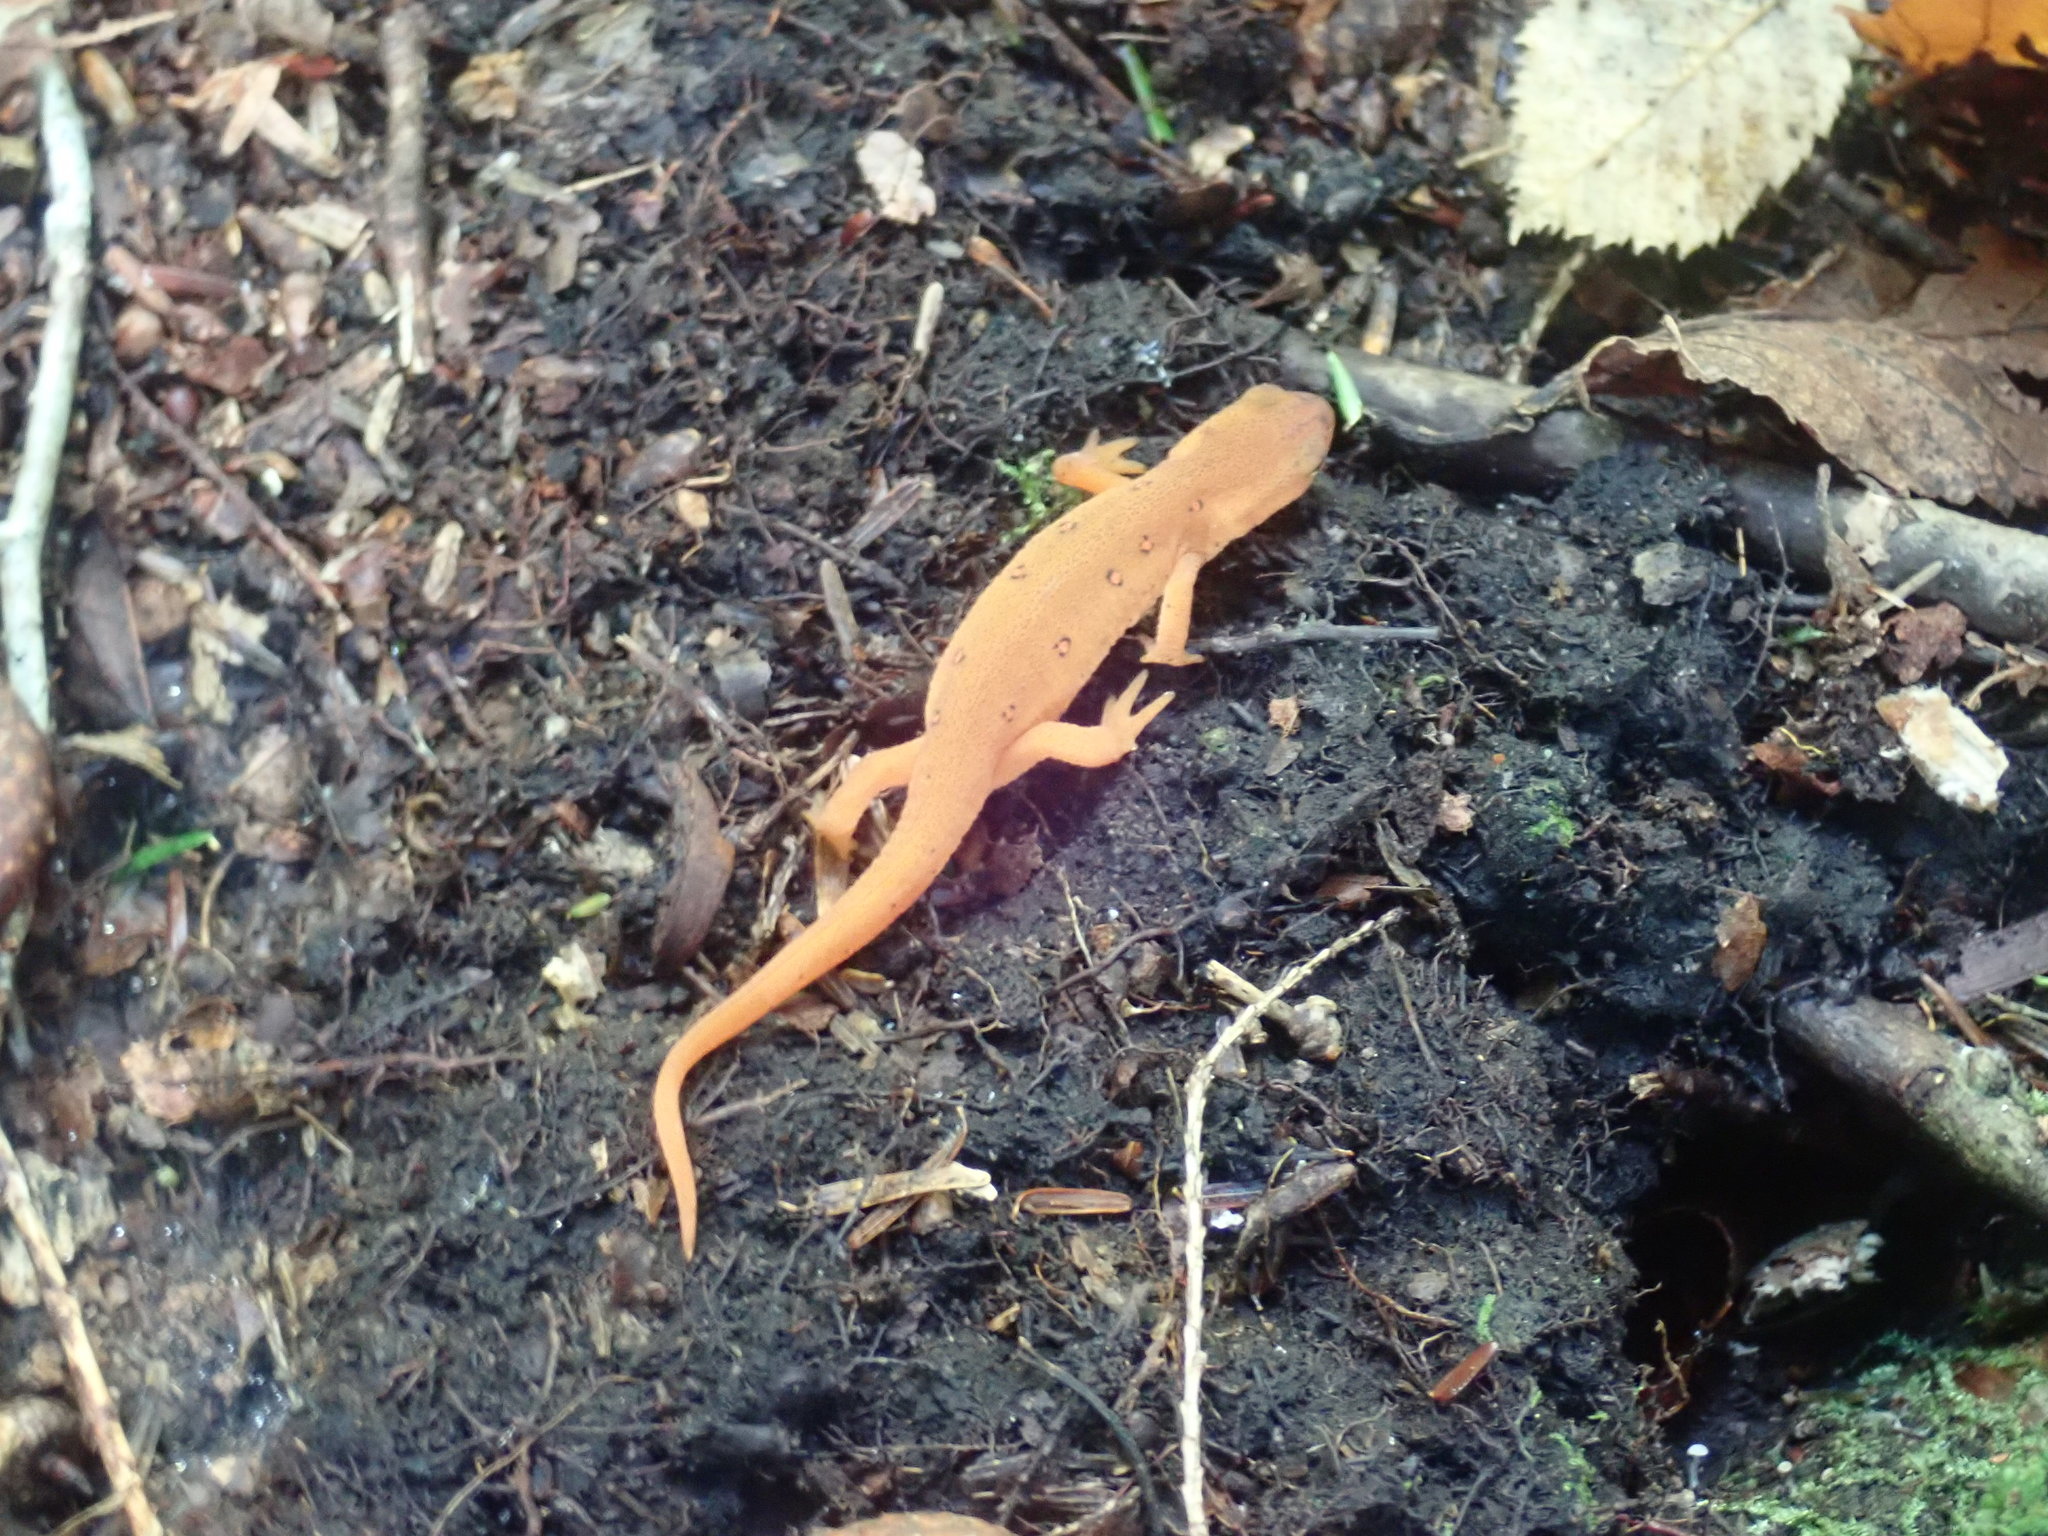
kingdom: Animalia
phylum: Chordata
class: Amphibia
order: Caudata
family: Salamandridae
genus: Notophthalmus
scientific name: Notophthalmus viridescens
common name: Eastern newt
